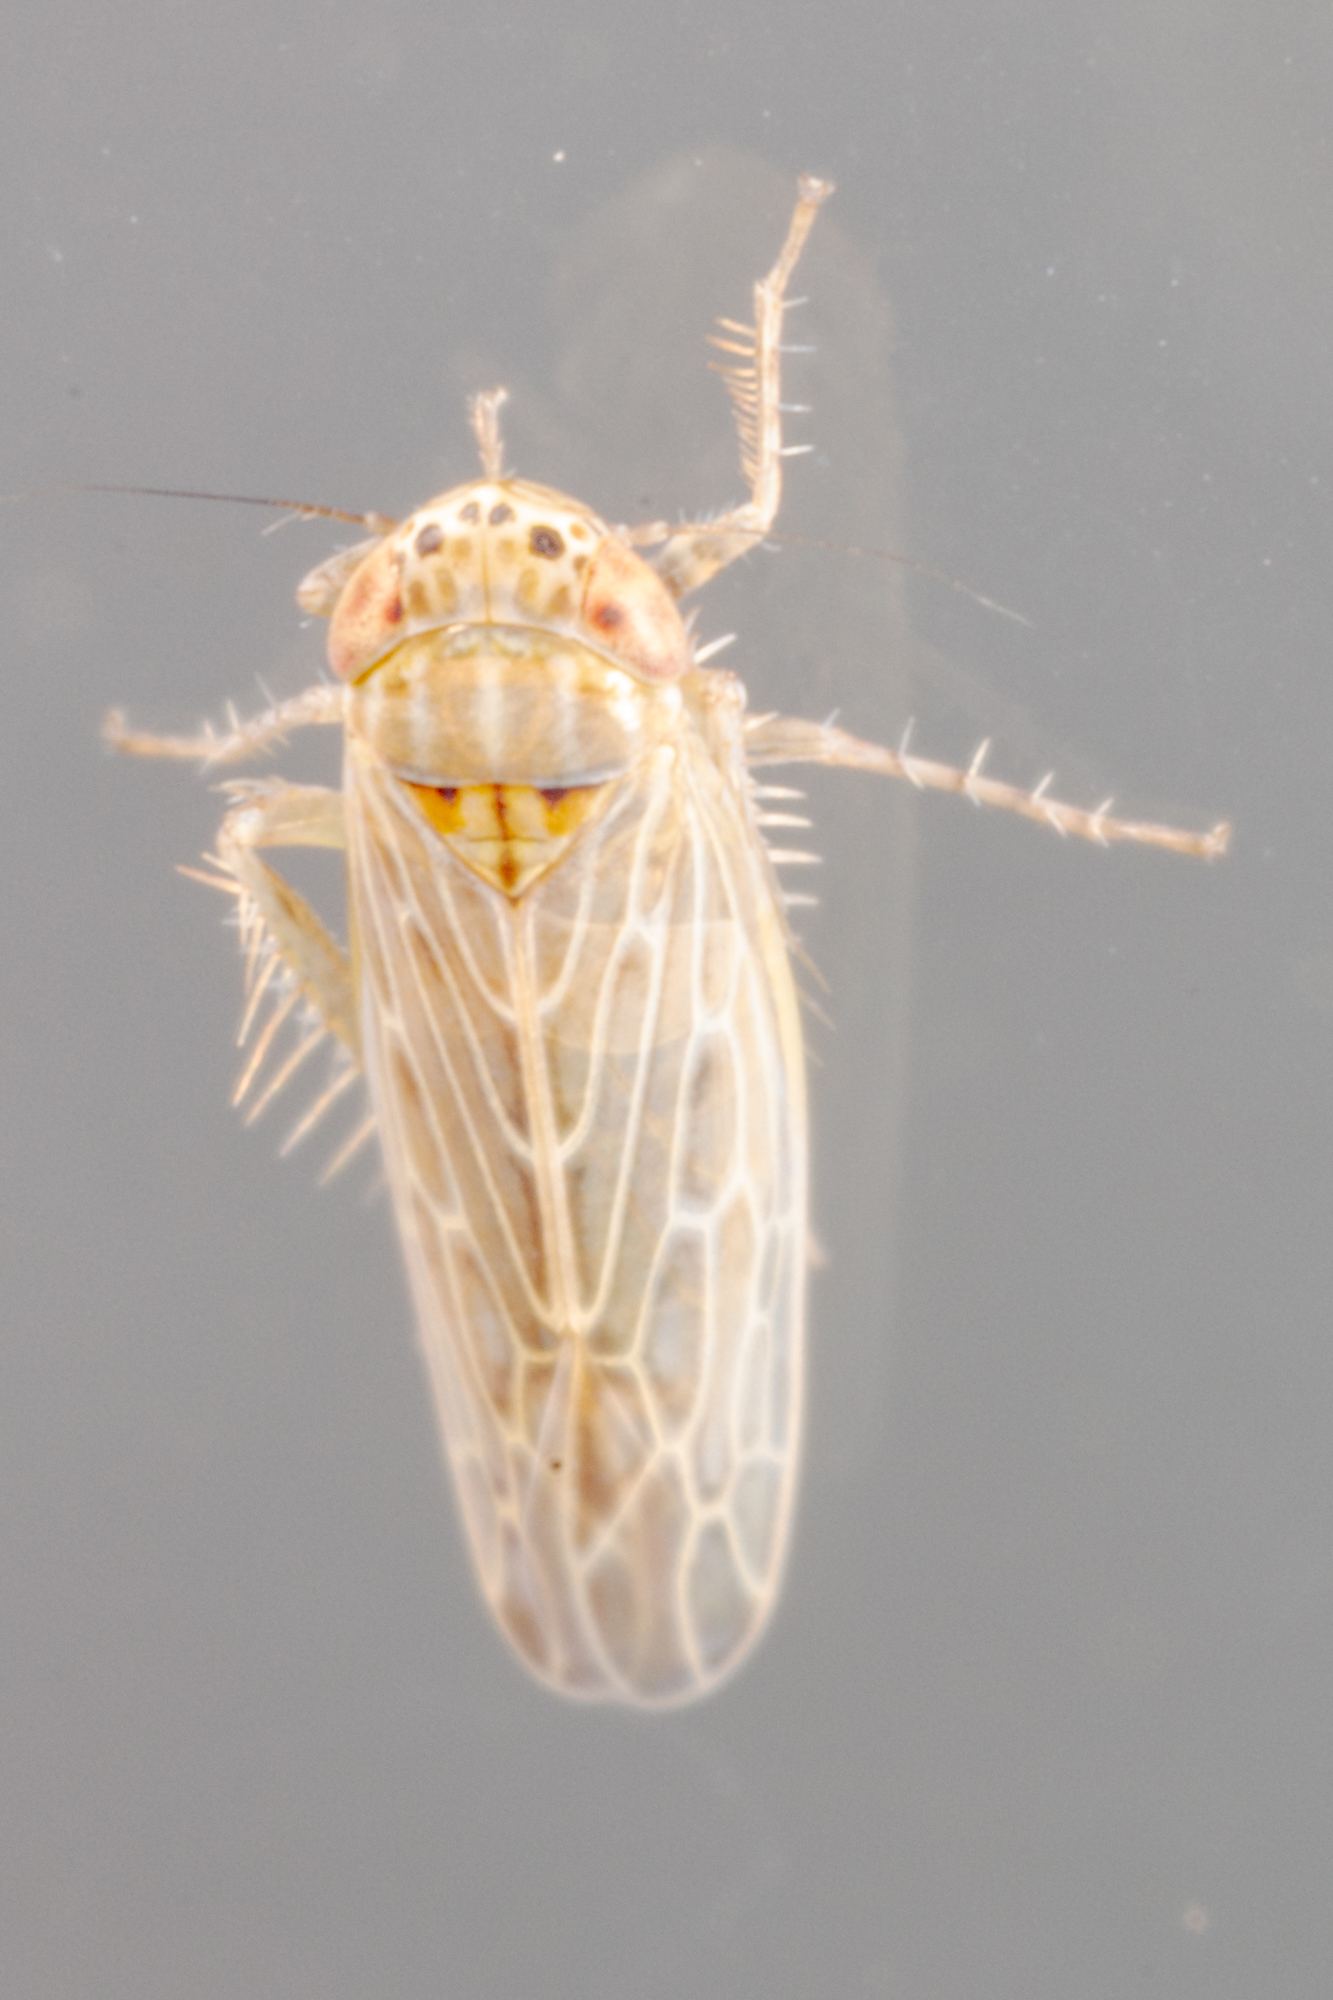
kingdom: Animalia
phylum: Arthropoda
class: Insecta
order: Hemiptera
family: Cicadellidae
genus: Graminella
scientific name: Graminella sonora
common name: Lesser lawn leafhopper
